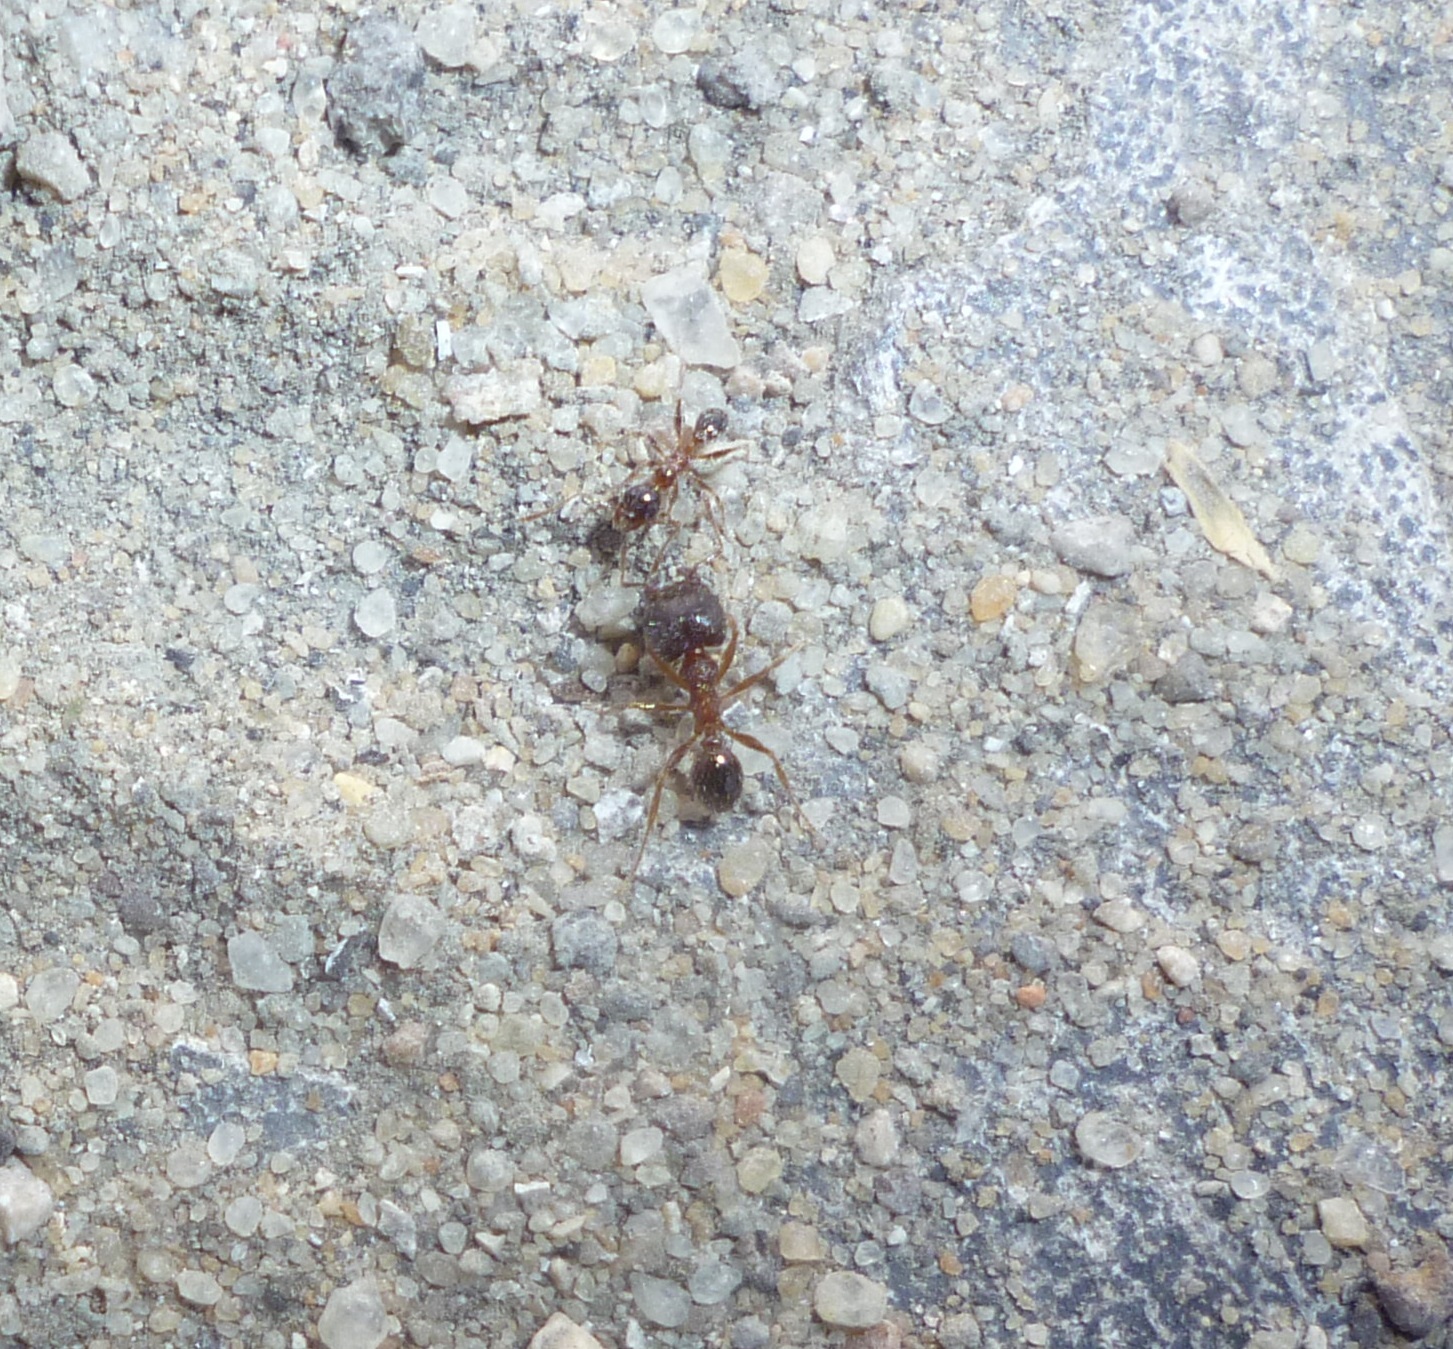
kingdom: Animalia
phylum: Arthropoda
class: Insecta
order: Hymenoptera
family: Formicidae
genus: Pheidole
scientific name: Pheidole indica
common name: Big-headed ant
